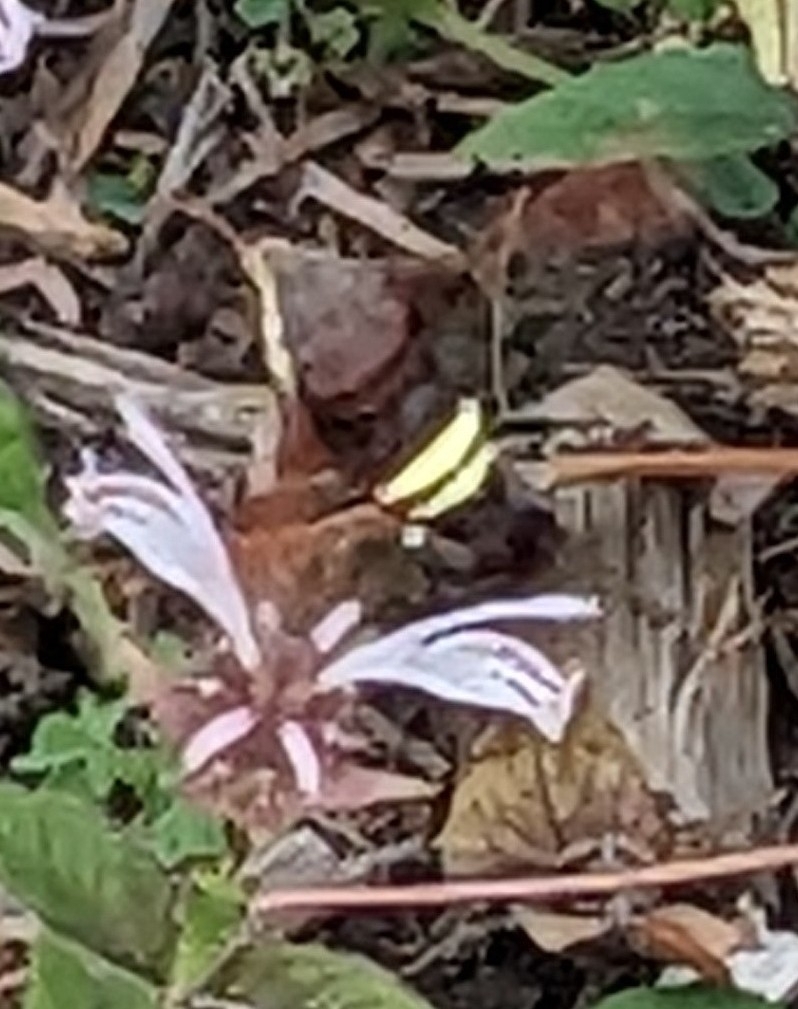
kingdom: Animalia
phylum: Arthropoda
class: Insecta
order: Lepidoptera
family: Sphingidae
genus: Amphion
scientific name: Amphion floridensis
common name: Nessus sphinx
